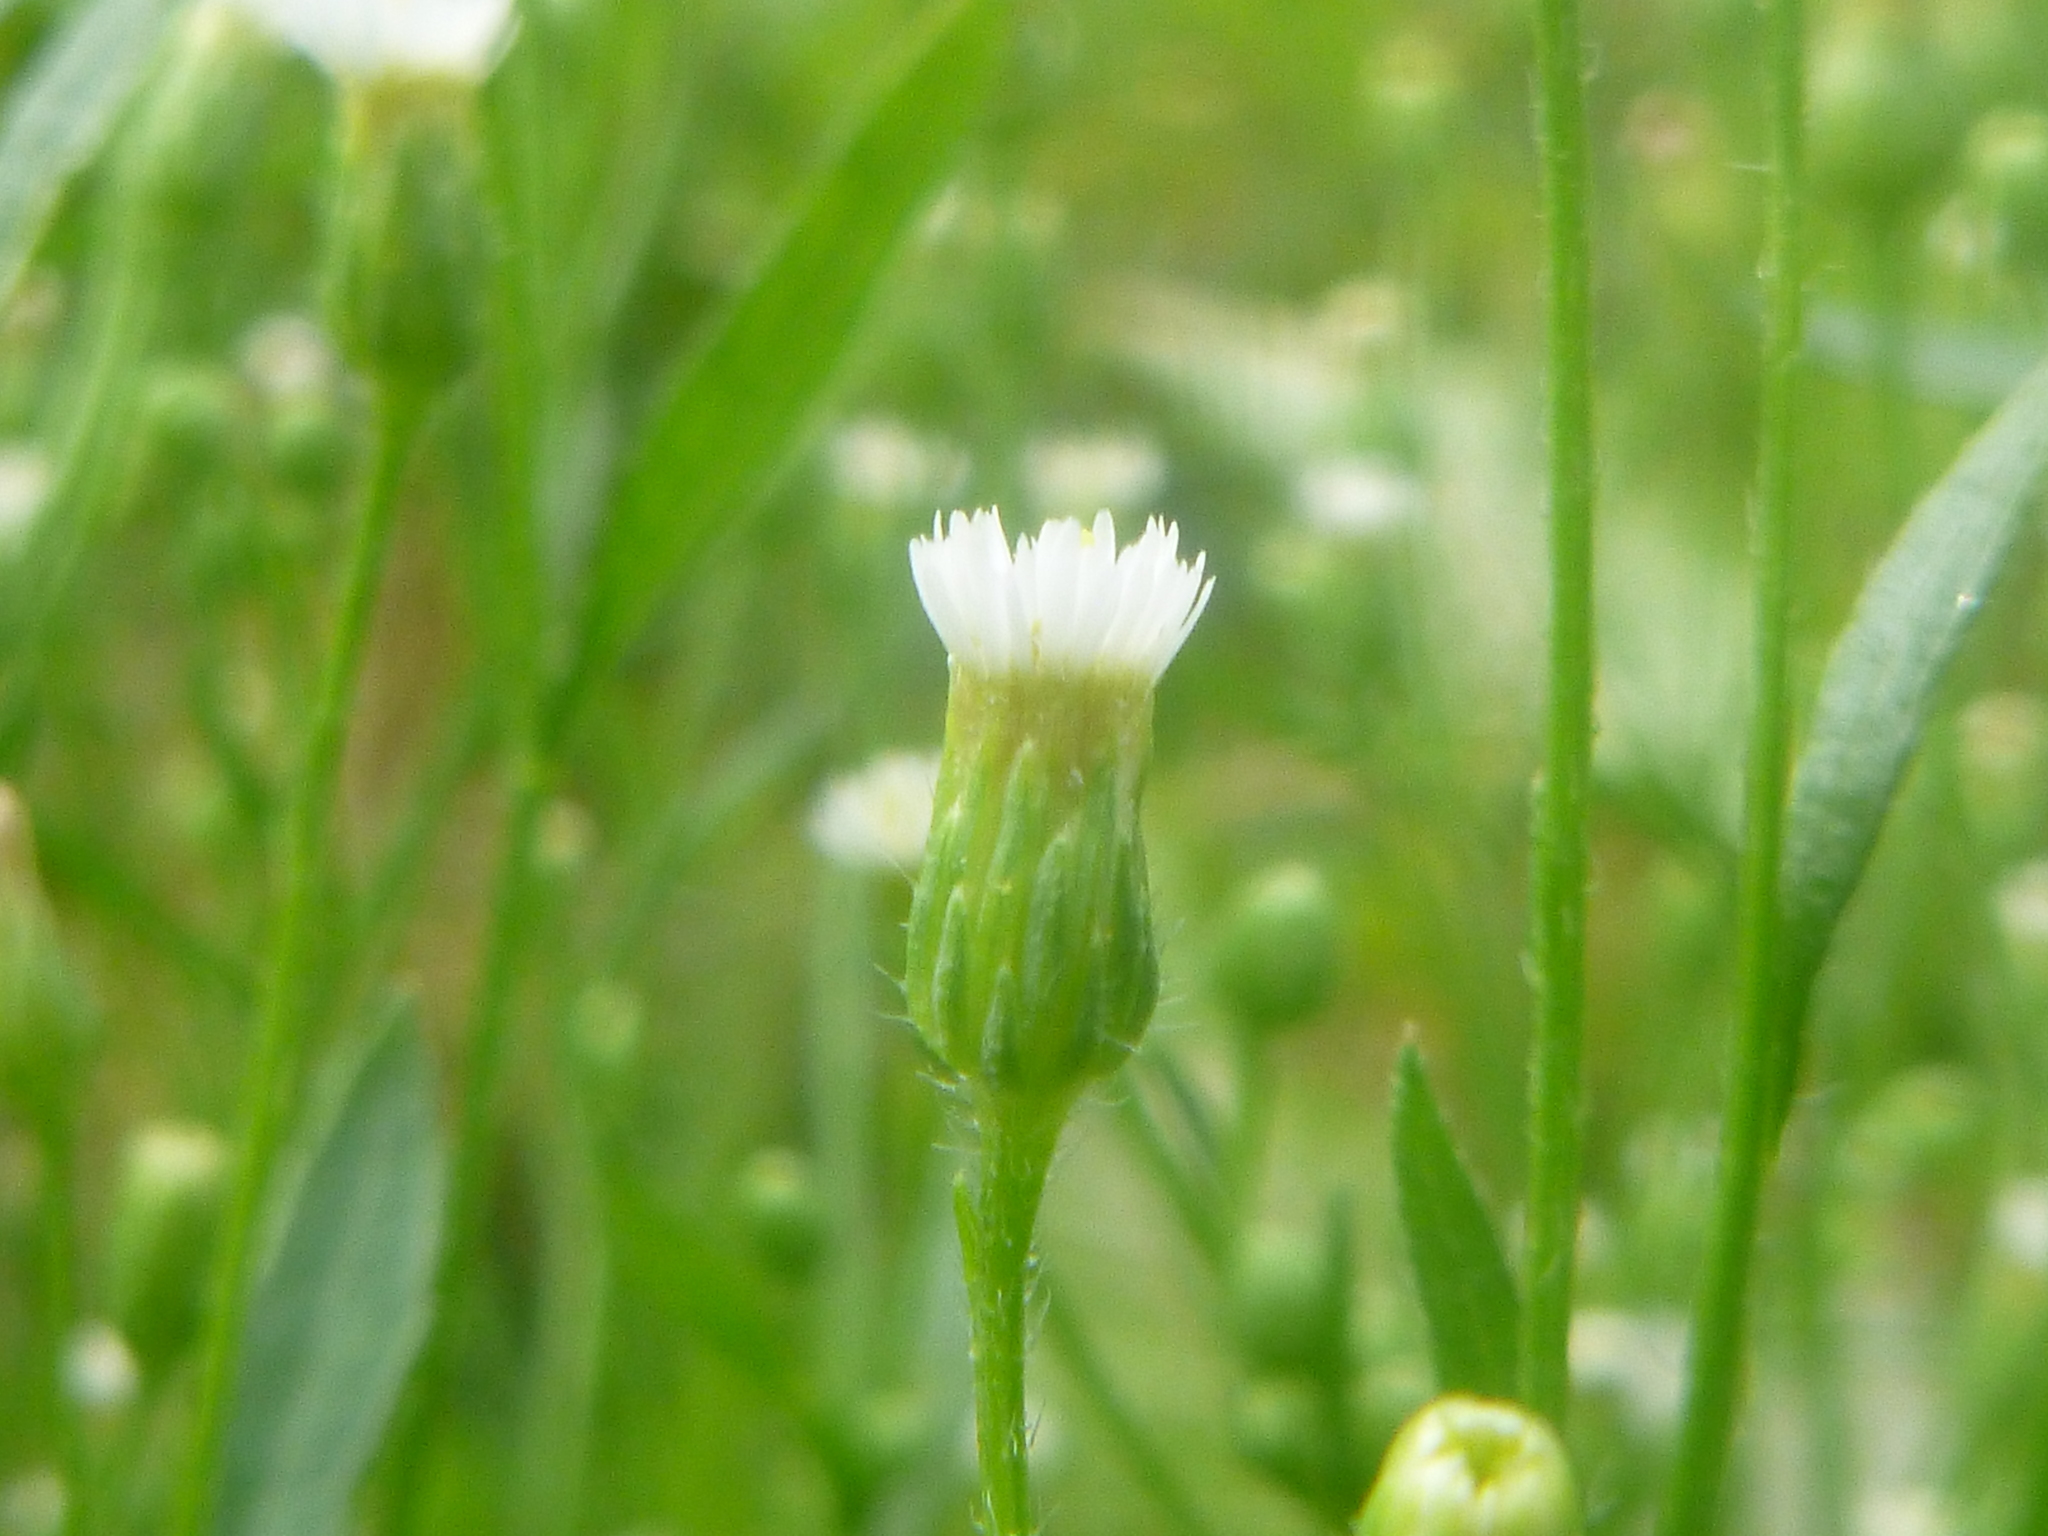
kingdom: Plantae
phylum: Tracheophyta
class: Magnoliopsida
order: Asterales
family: Asteraceae
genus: Erigeron
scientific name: Erigeron canadensis
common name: Canadian fleabane
